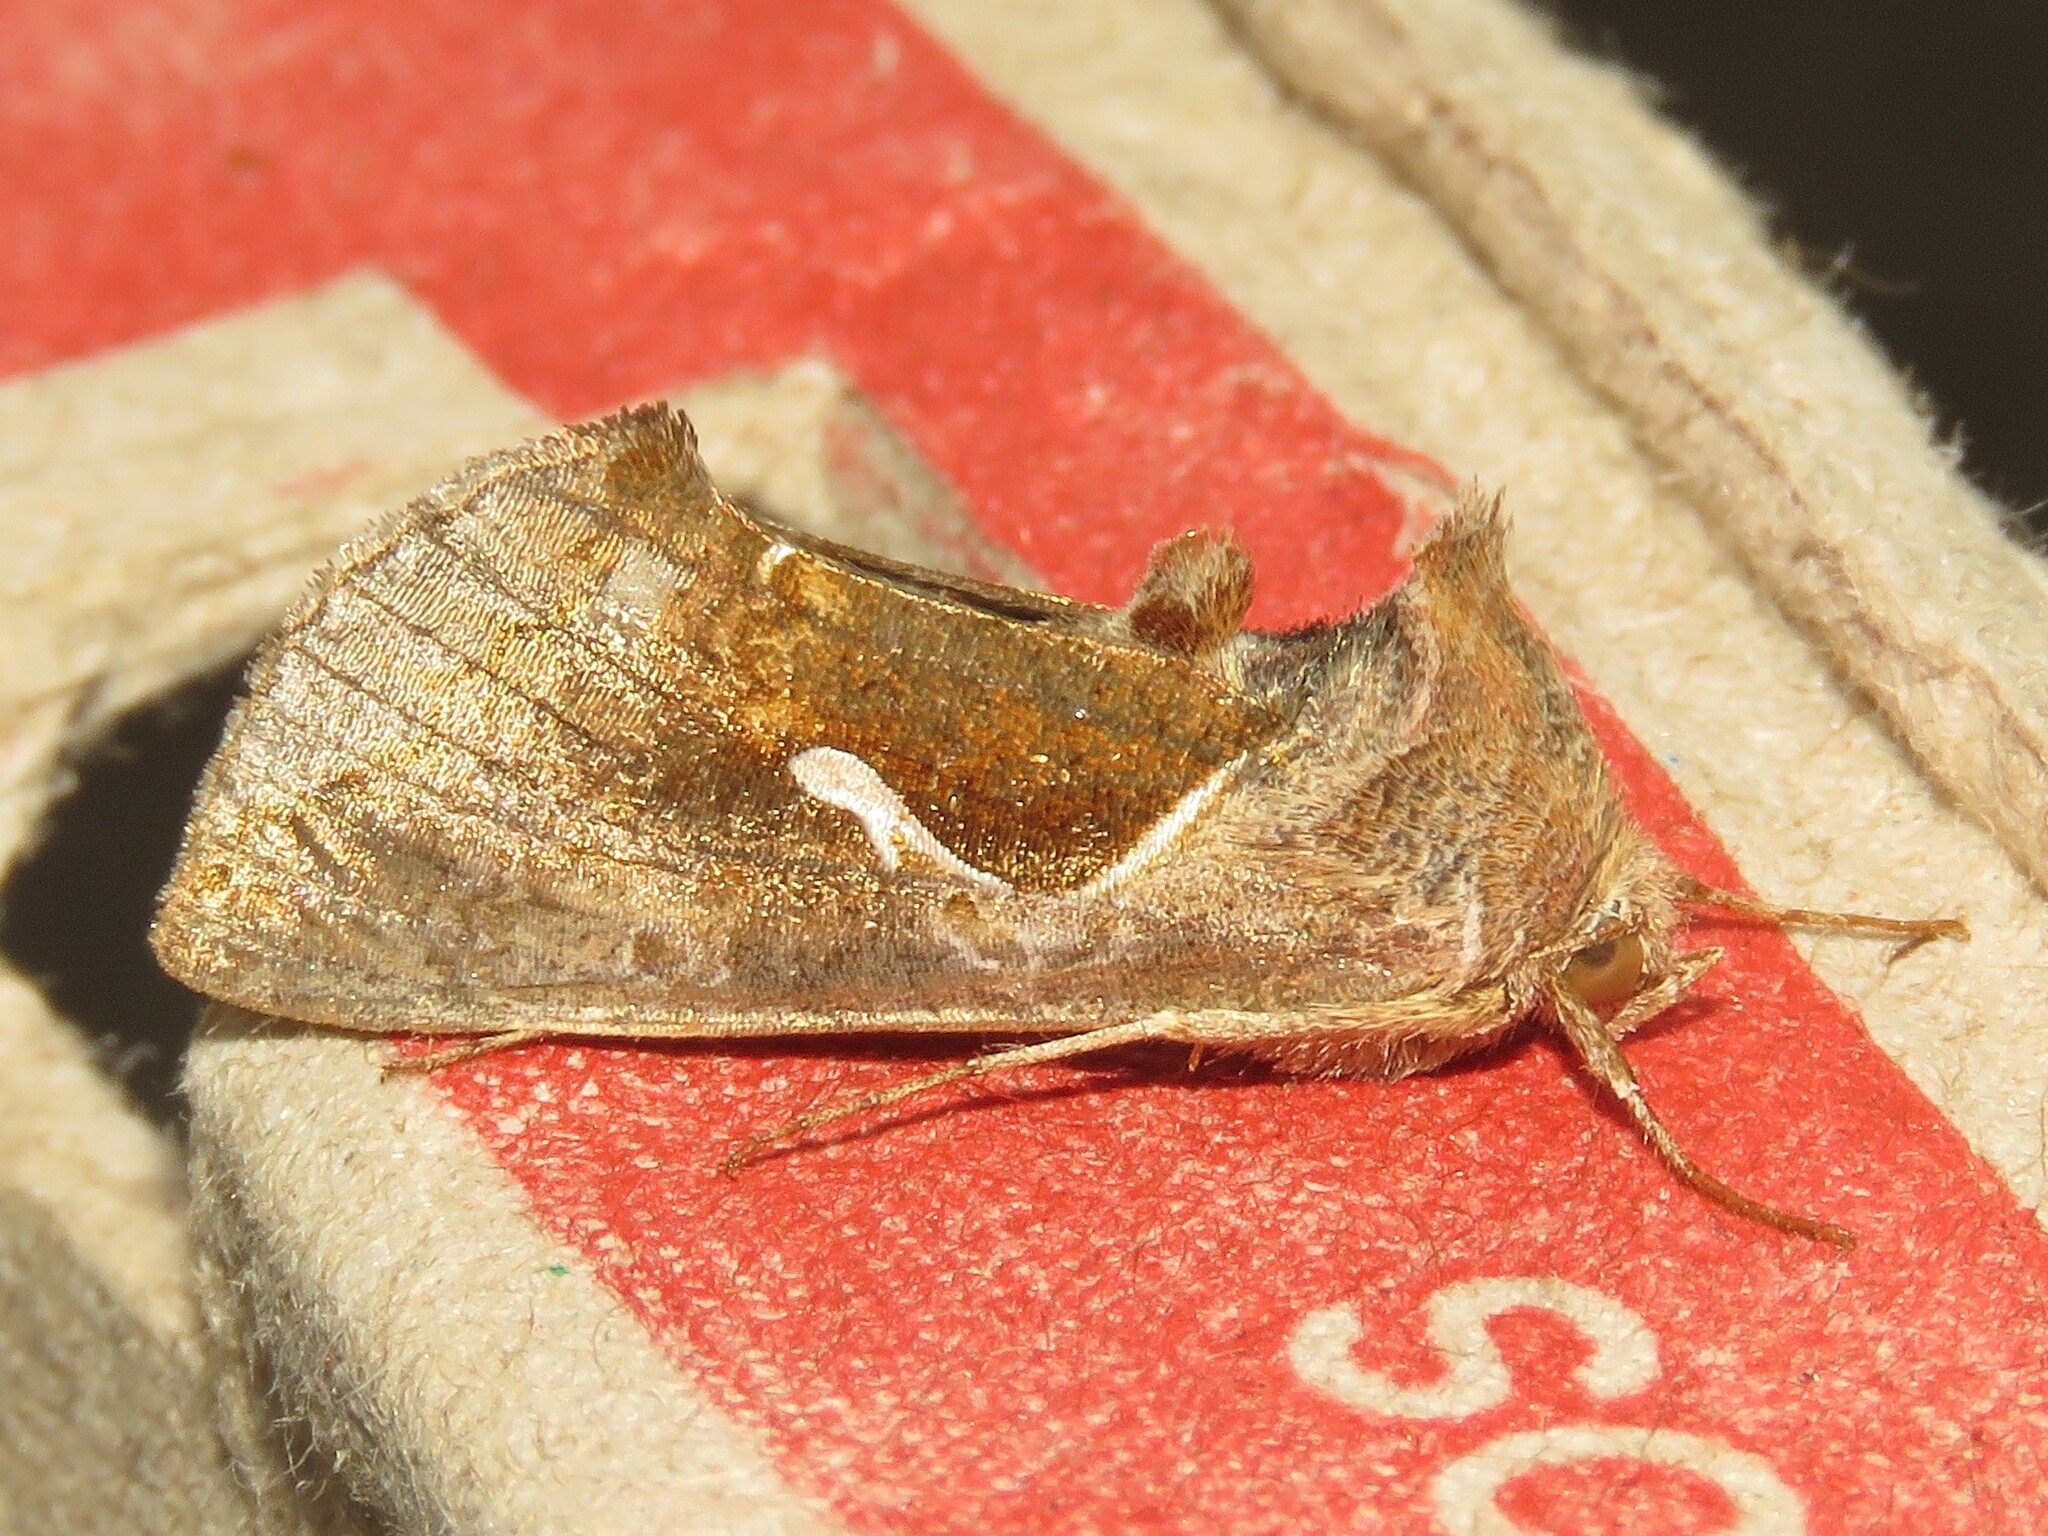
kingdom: Animalia
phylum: Arthropoda
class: Insecta
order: Lepidoptera
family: Noctuidae
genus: Anagrapha
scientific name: Anagrapha falcifera
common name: Celery looper
